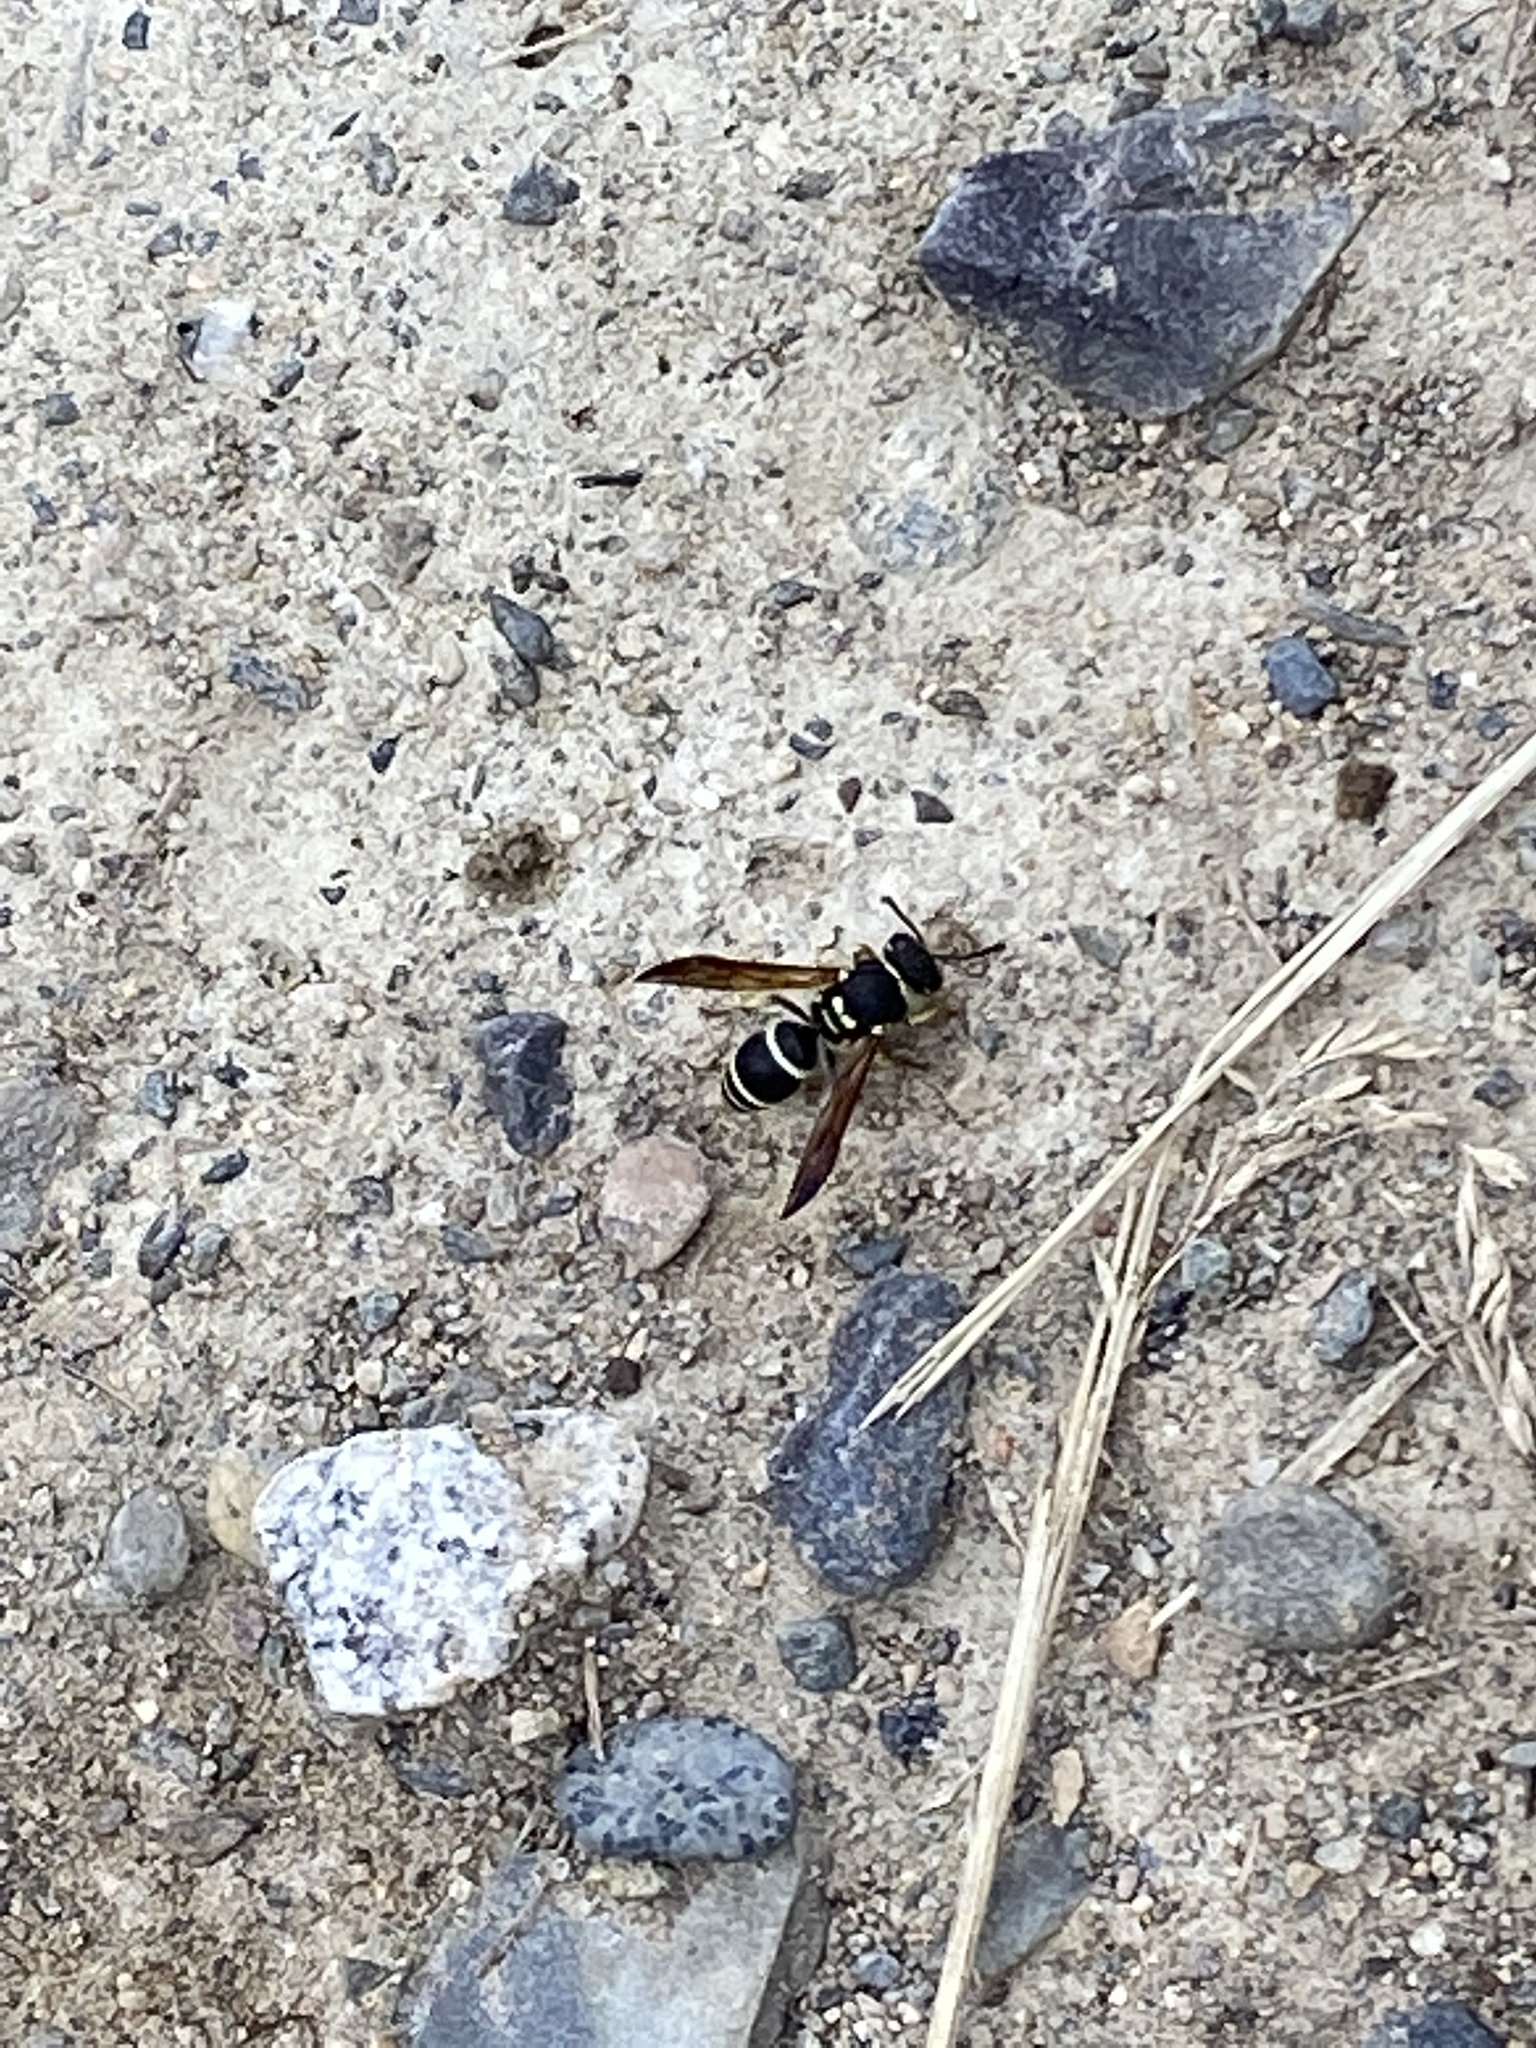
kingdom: Animalia
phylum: Arthropoda
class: Insecta
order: Hymenoptera
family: Vespidae
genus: Ancistrocerus
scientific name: Ancistrocerus catskill
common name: Vespid wasp
